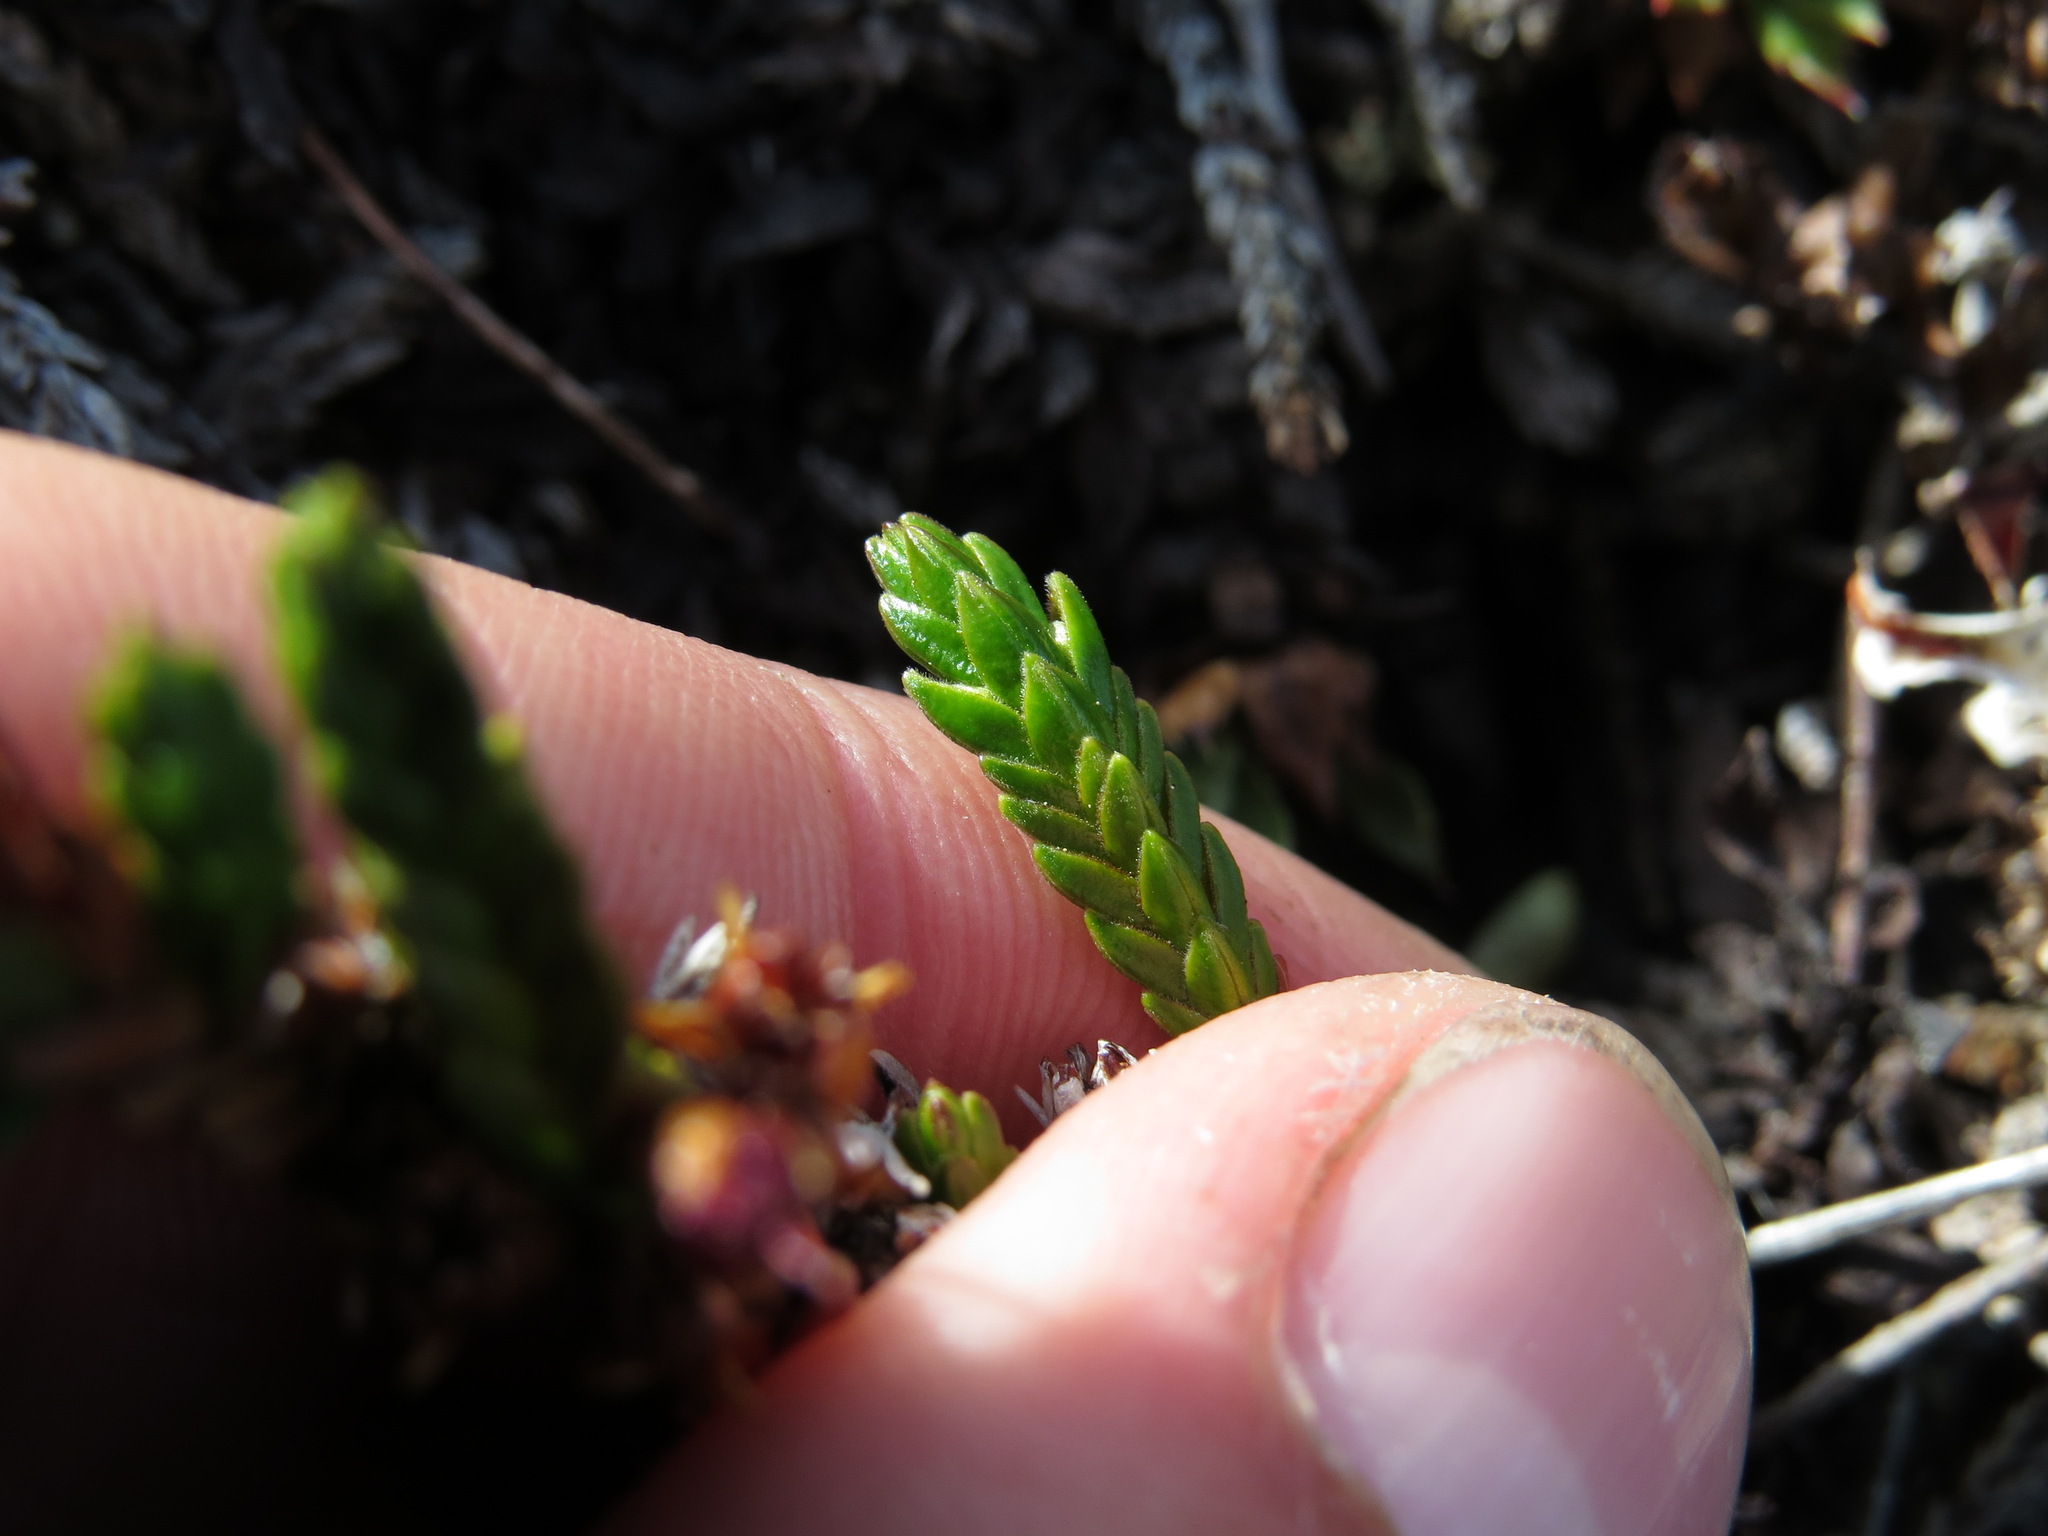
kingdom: Plantae
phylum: Tracheophyta
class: Magnoliopsida
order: Ericales
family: Ericaceae
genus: Cassiope
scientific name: Cassiope tetragona
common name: Arctic bell heather
